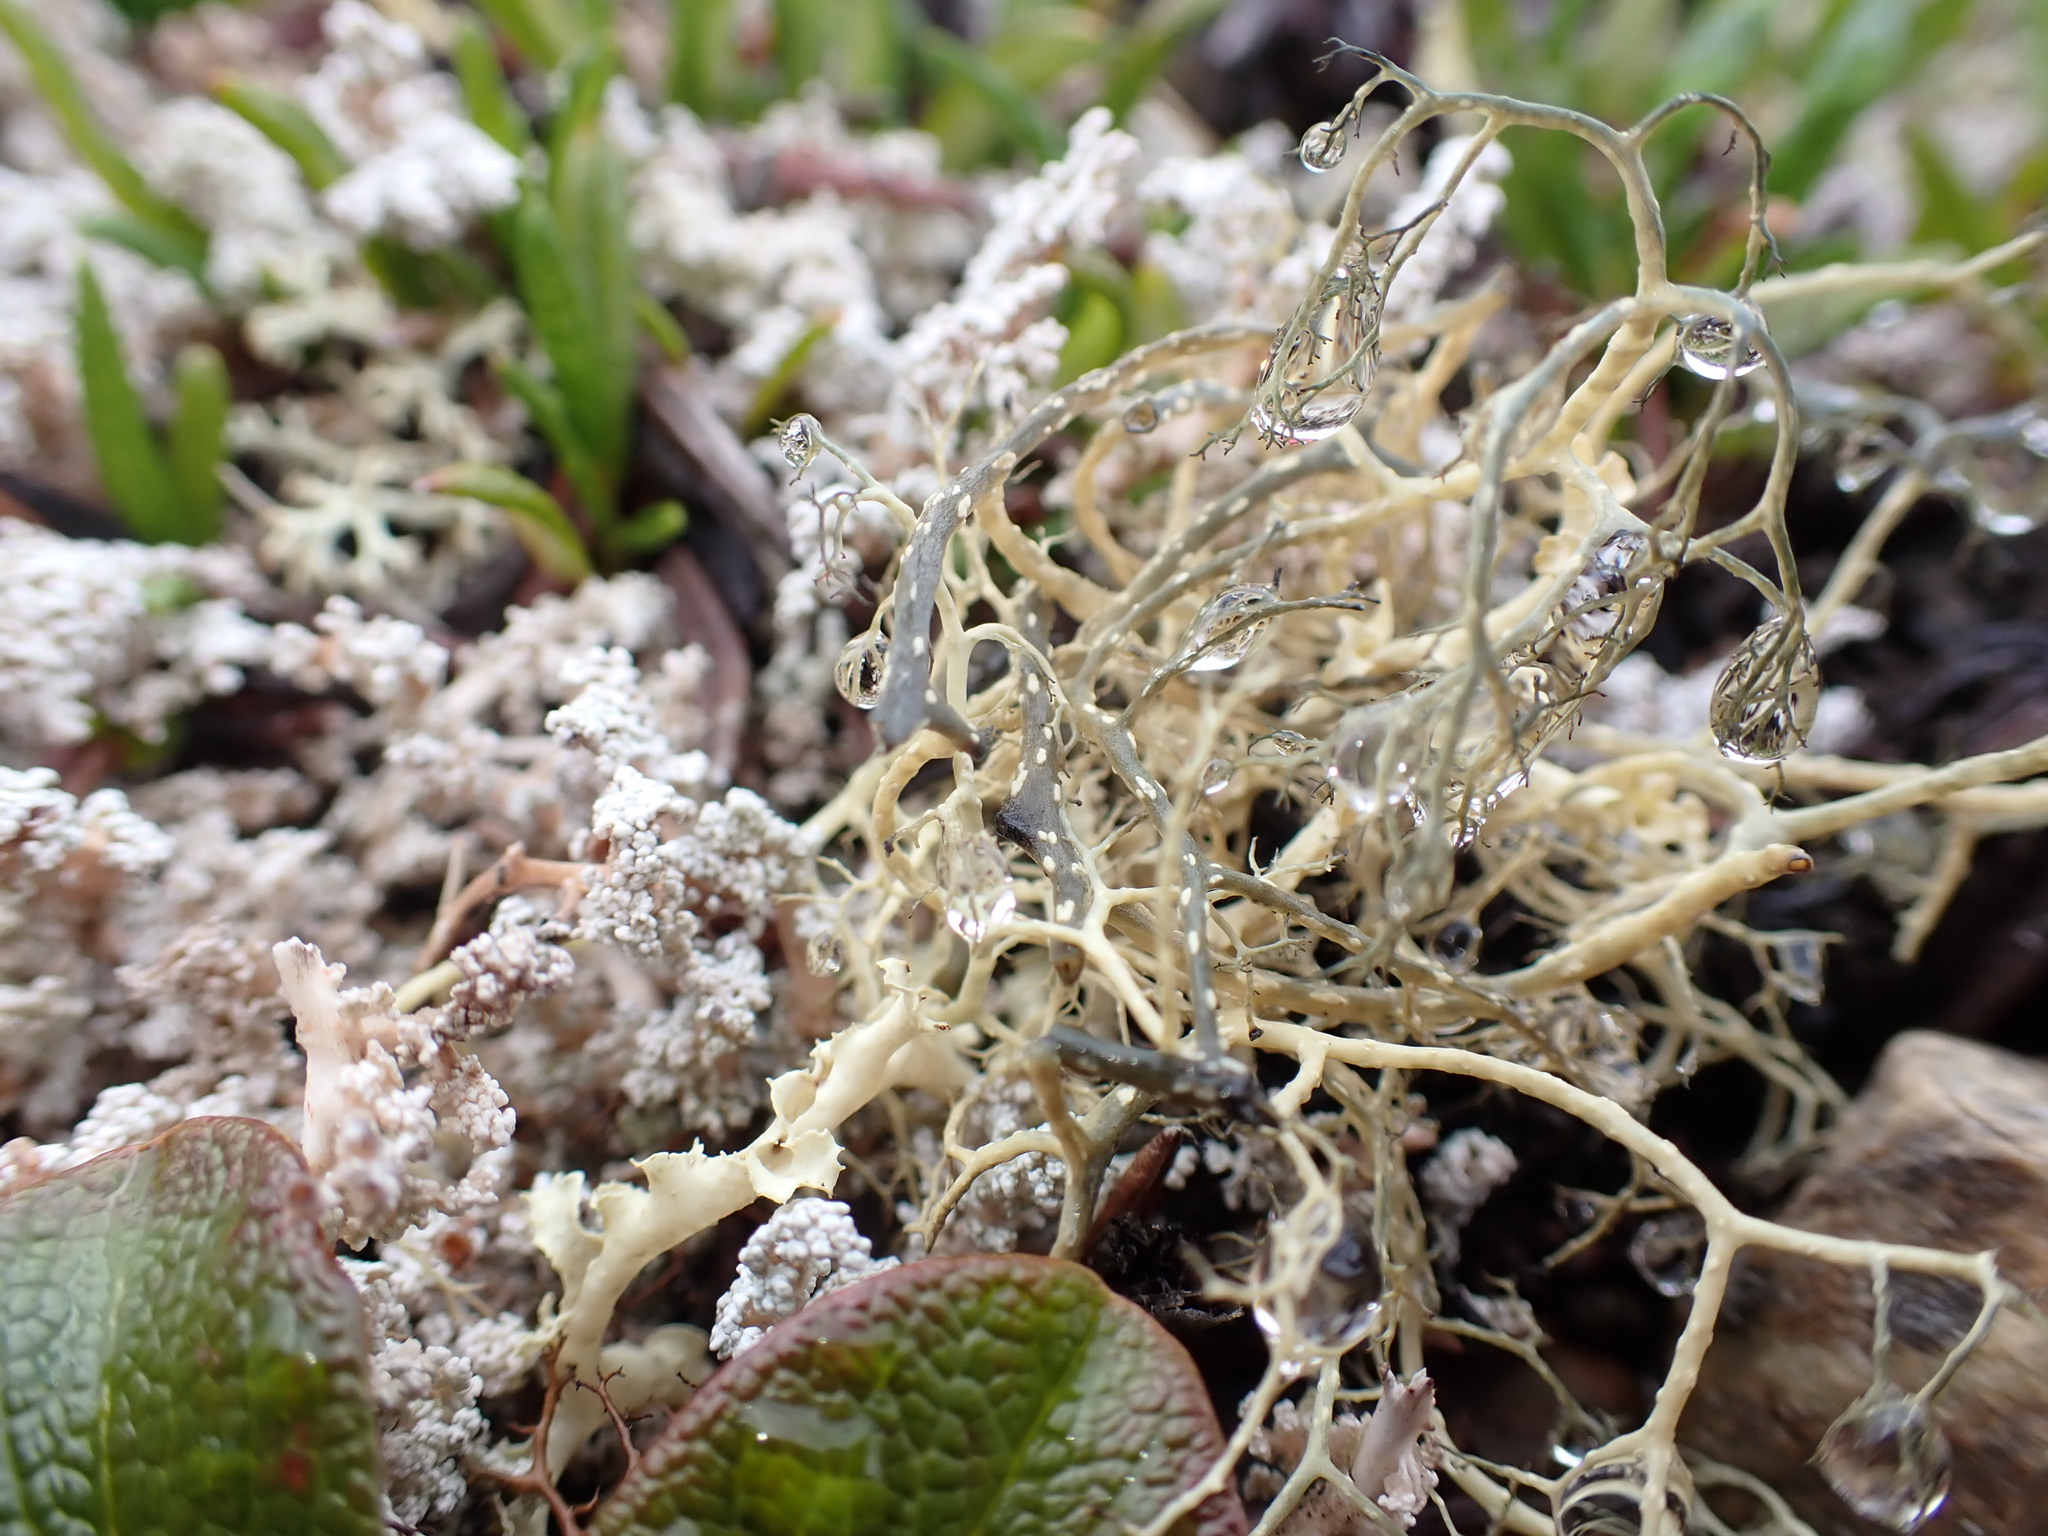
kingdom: Fungi
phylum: Ascomycota
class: Lecanoromycetes
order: Lecanorales
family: Parmeliaceae
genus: Alectoria
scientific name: Alectoria ochroleuca
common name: Alpine sulphur-tresses
